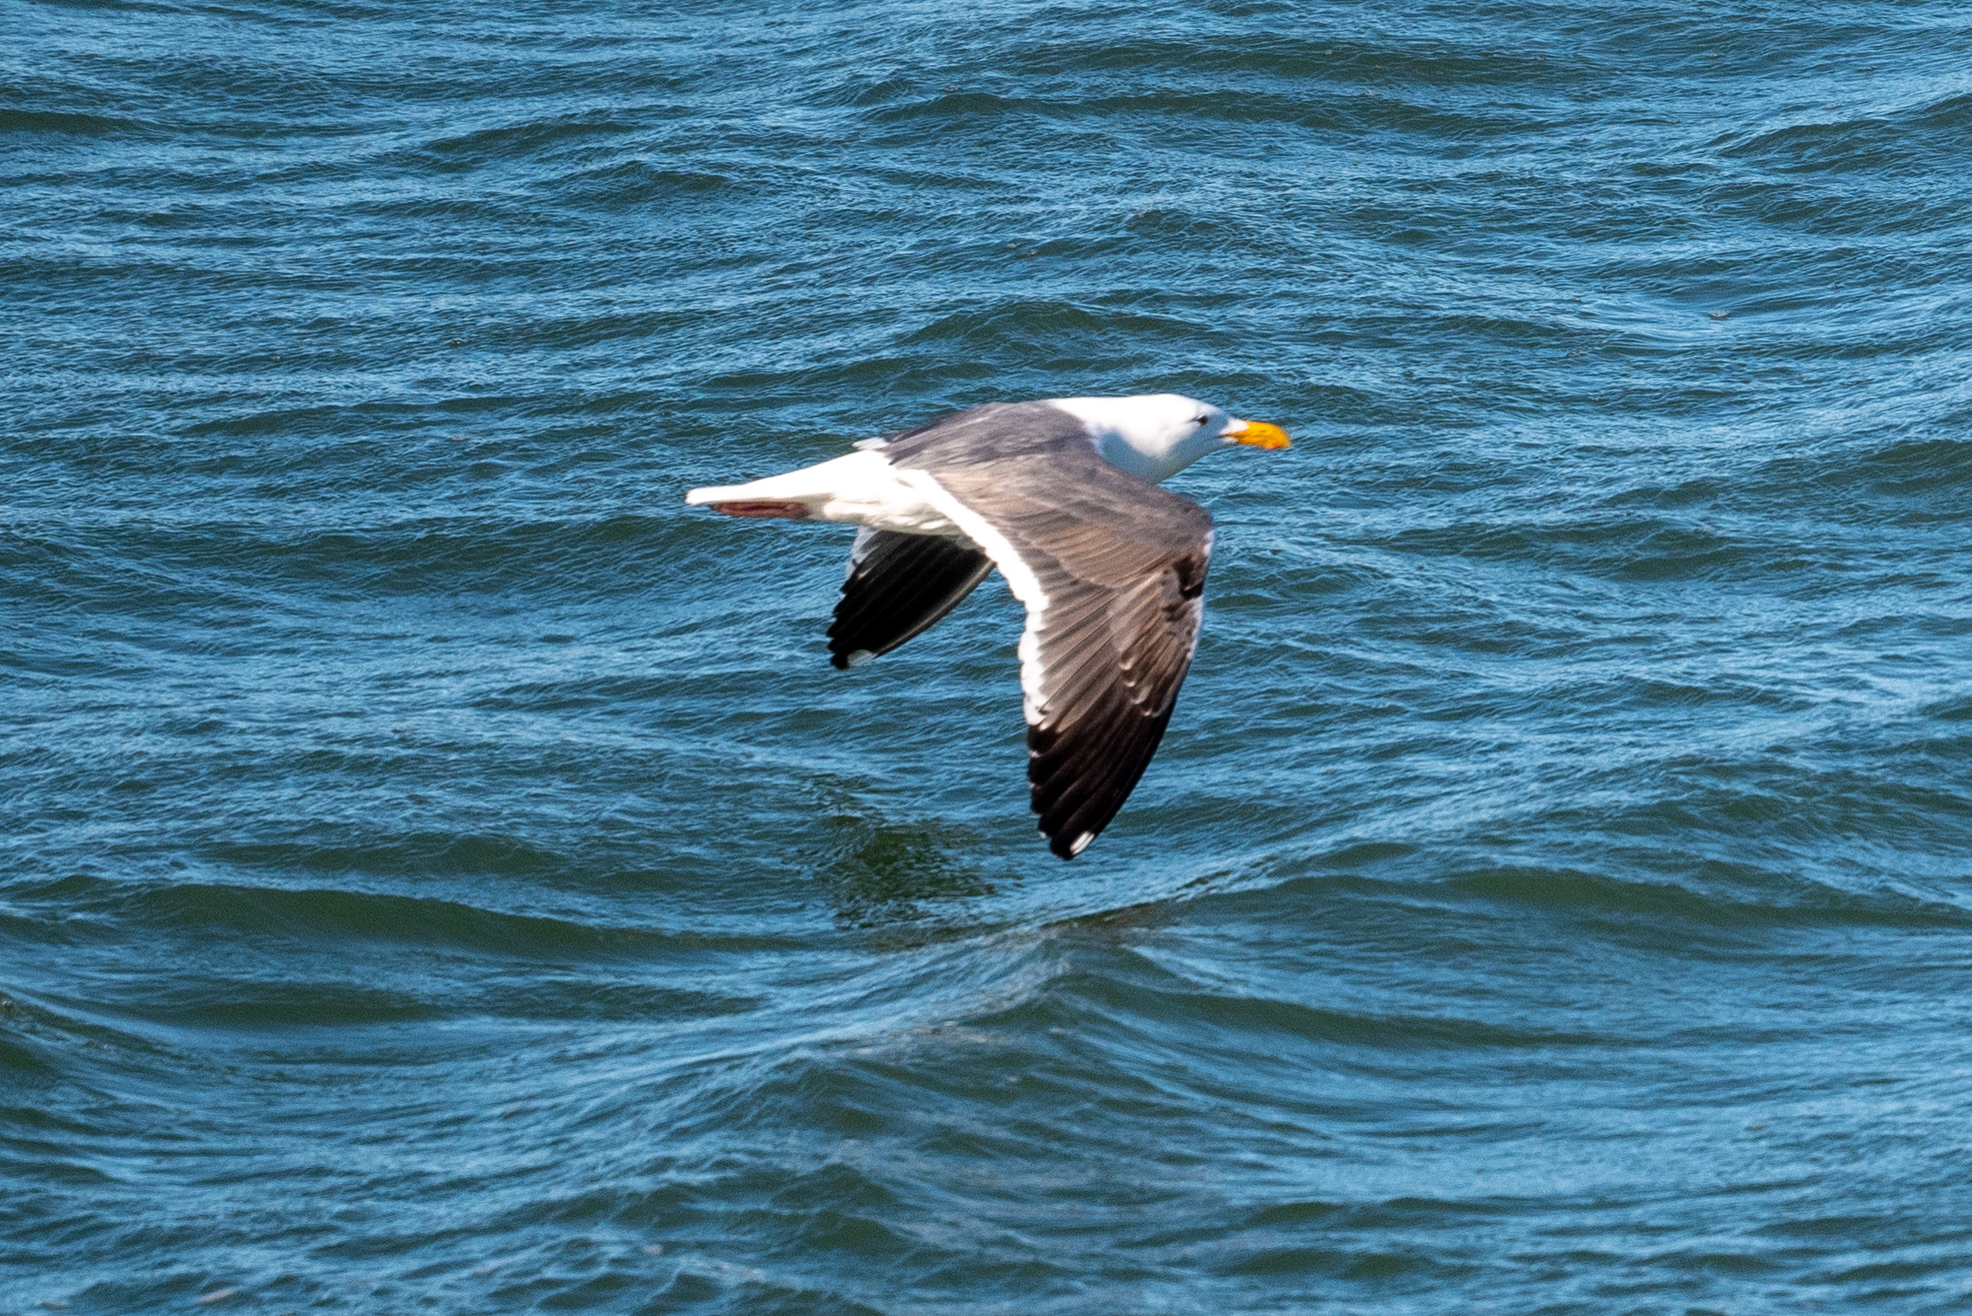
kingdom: Animalia
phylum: Chordata
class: Aves
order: Charadriiformes
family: Laridae
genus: Larus
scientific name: Larus occidentalis
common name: Western gull
